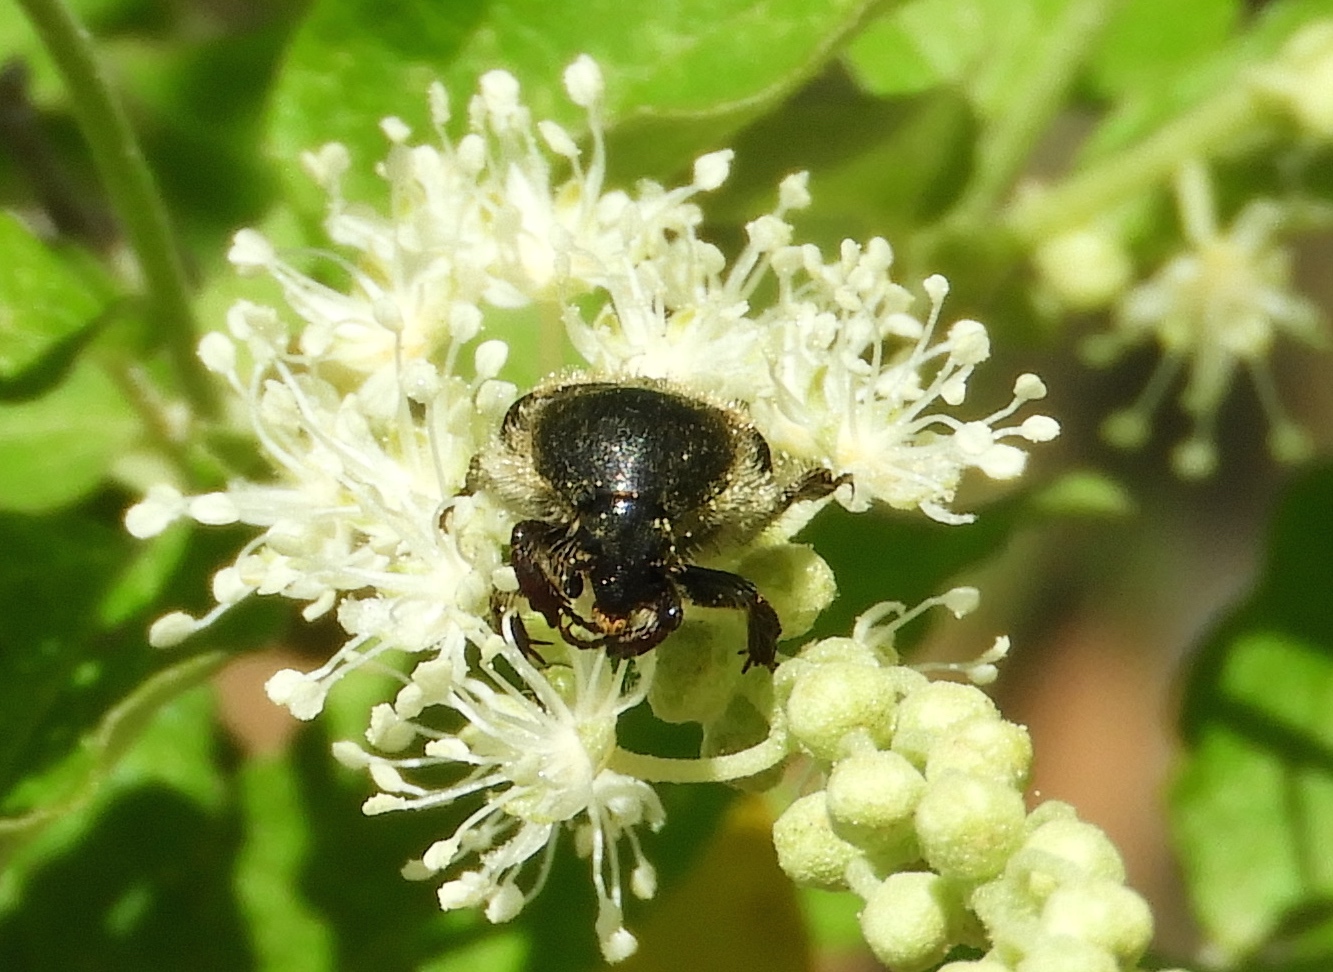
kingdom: Animalia
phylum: Arthropoda
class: Insecta
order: Coleoptera
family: Scarabaeidae
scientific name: Scarabaeidae
